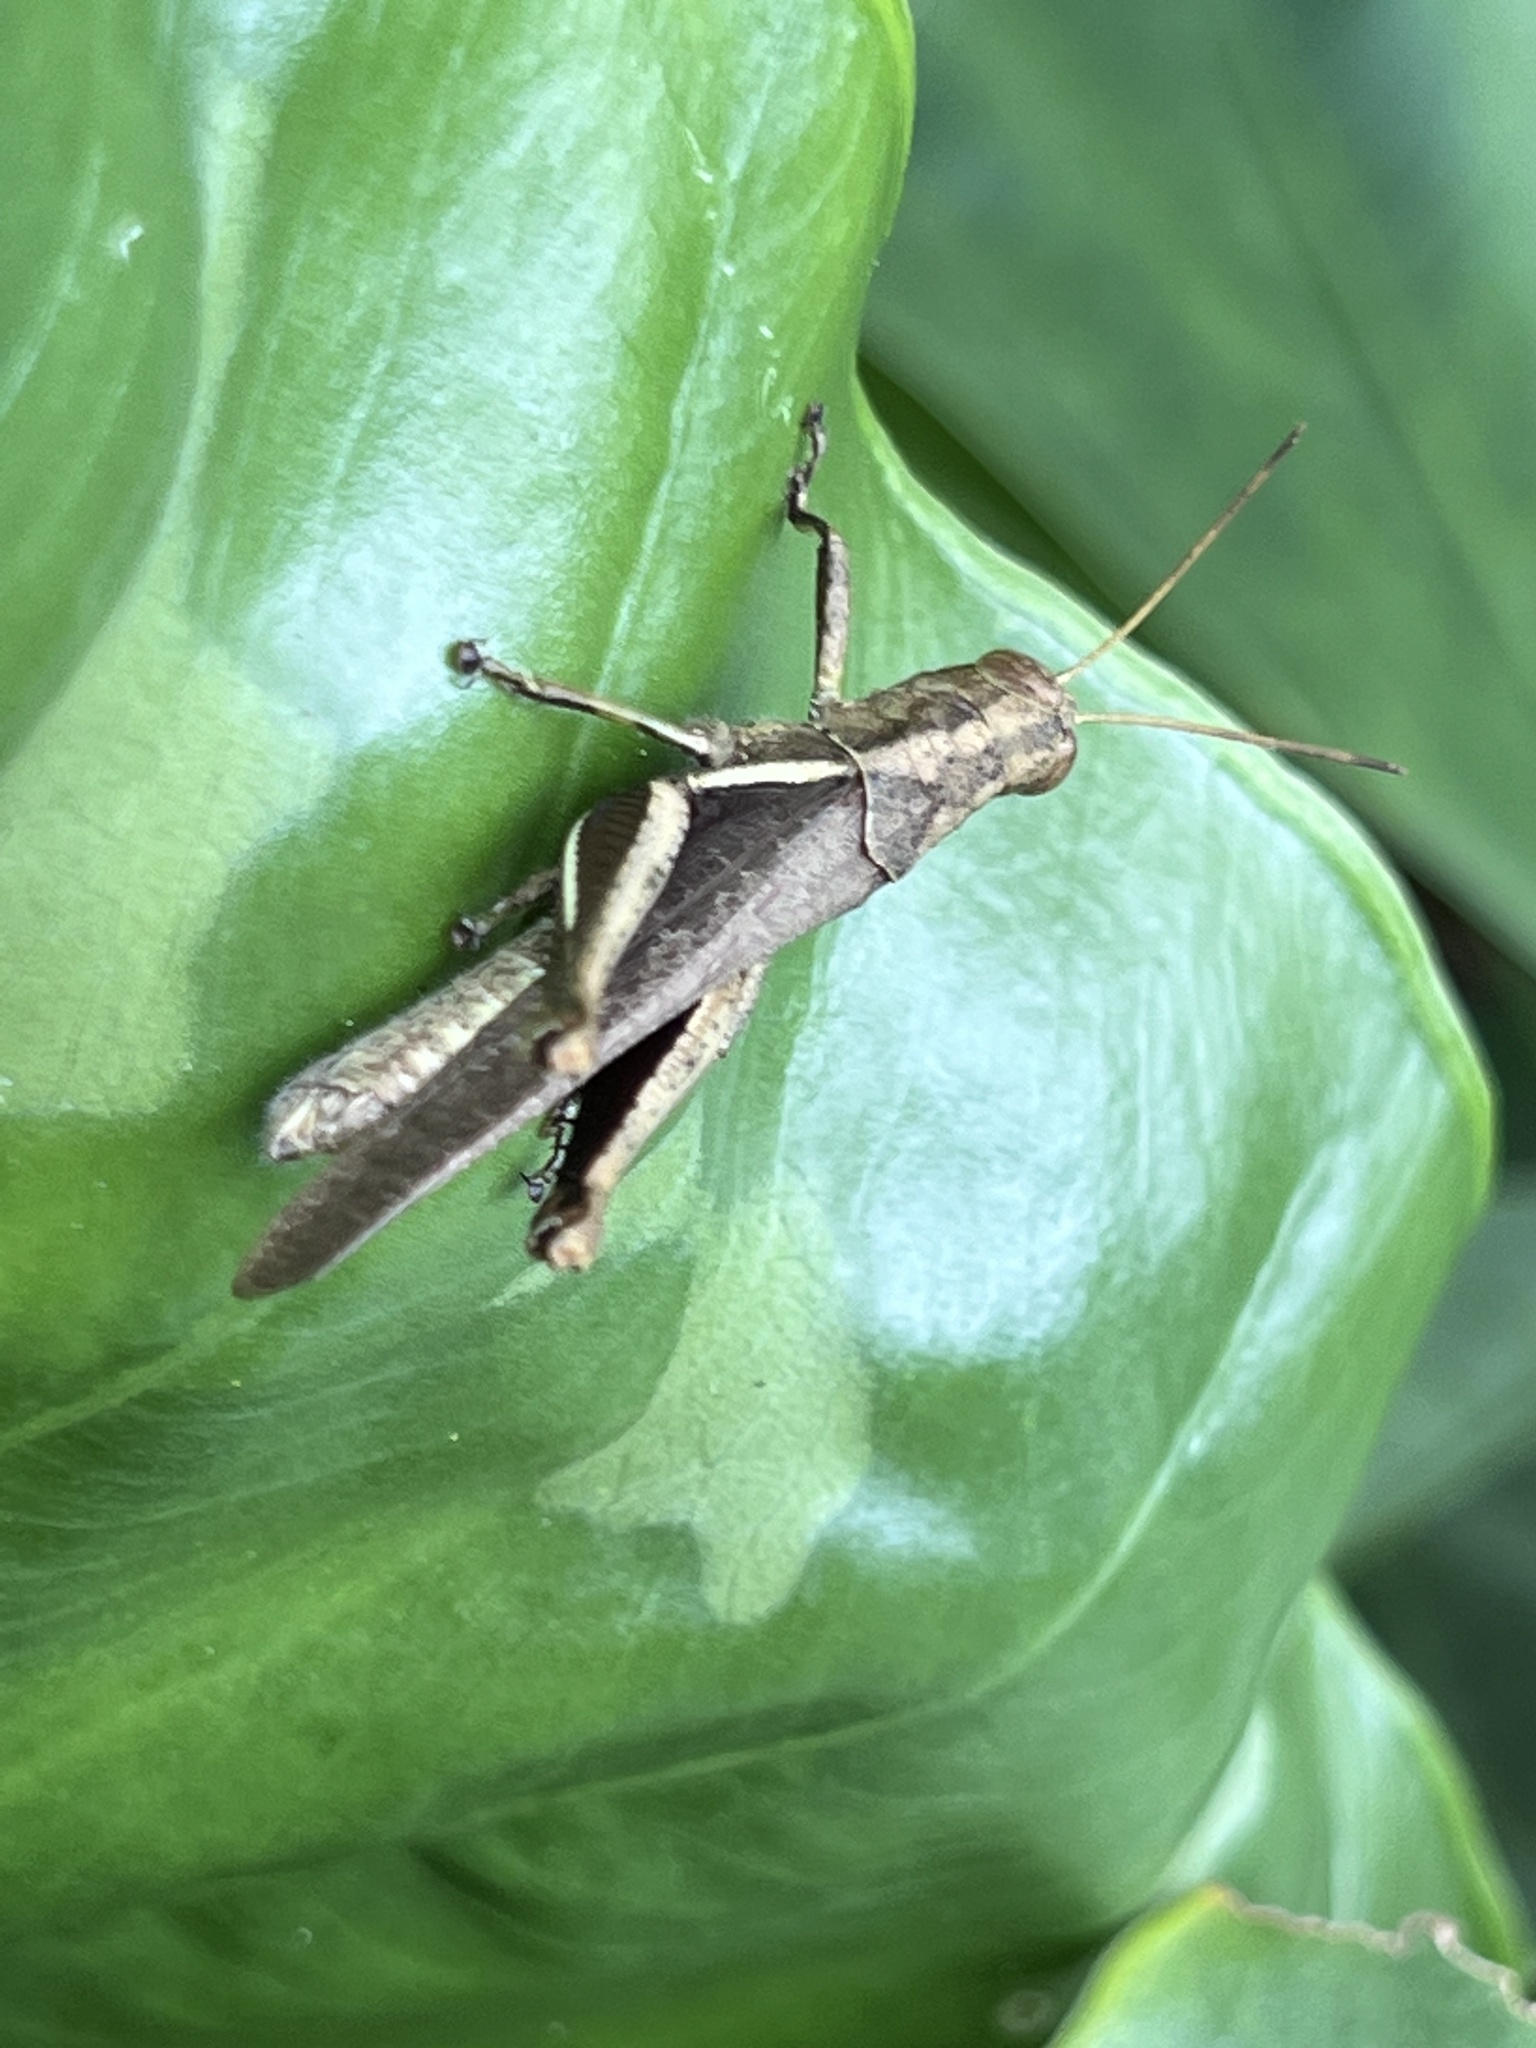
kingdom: Animalia
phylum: Arthropoda
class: Insecta
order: Orthoptera
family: Acrididae
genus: Abracris
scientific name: Abracris flavolineata
